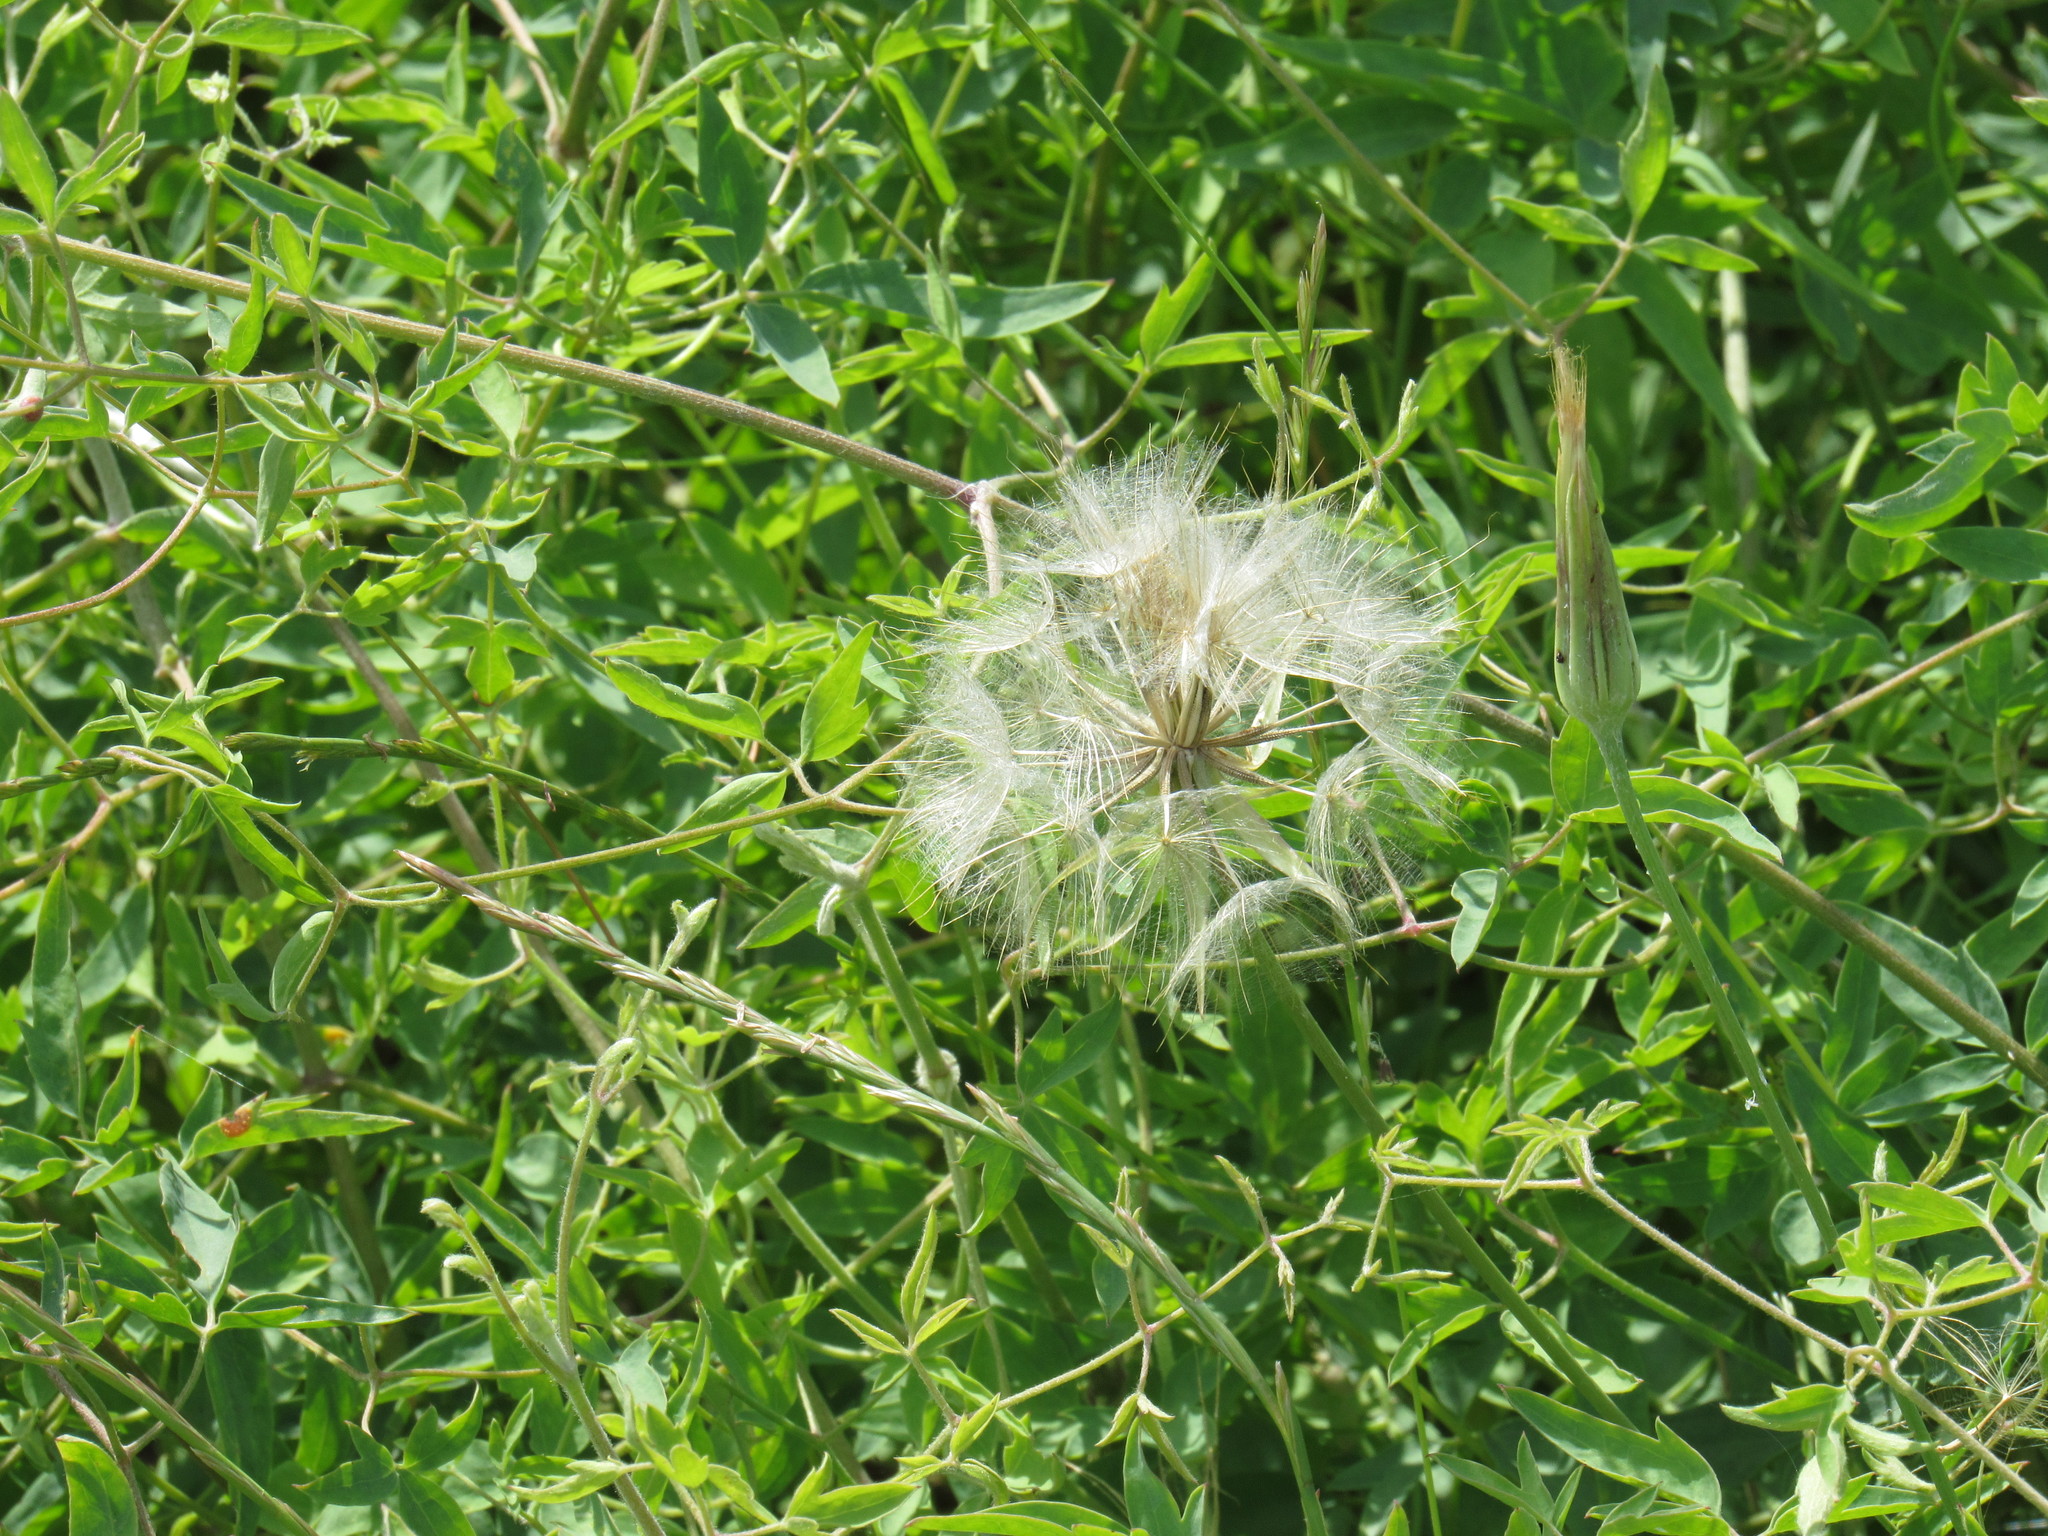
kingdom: Plantae
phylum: Tracheophyta
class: Magnoliopsida
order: Ranunculales
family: Ranunculaceae
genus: Clematis
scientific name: Clematis orientalis
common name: Oriental virgin's-bower
